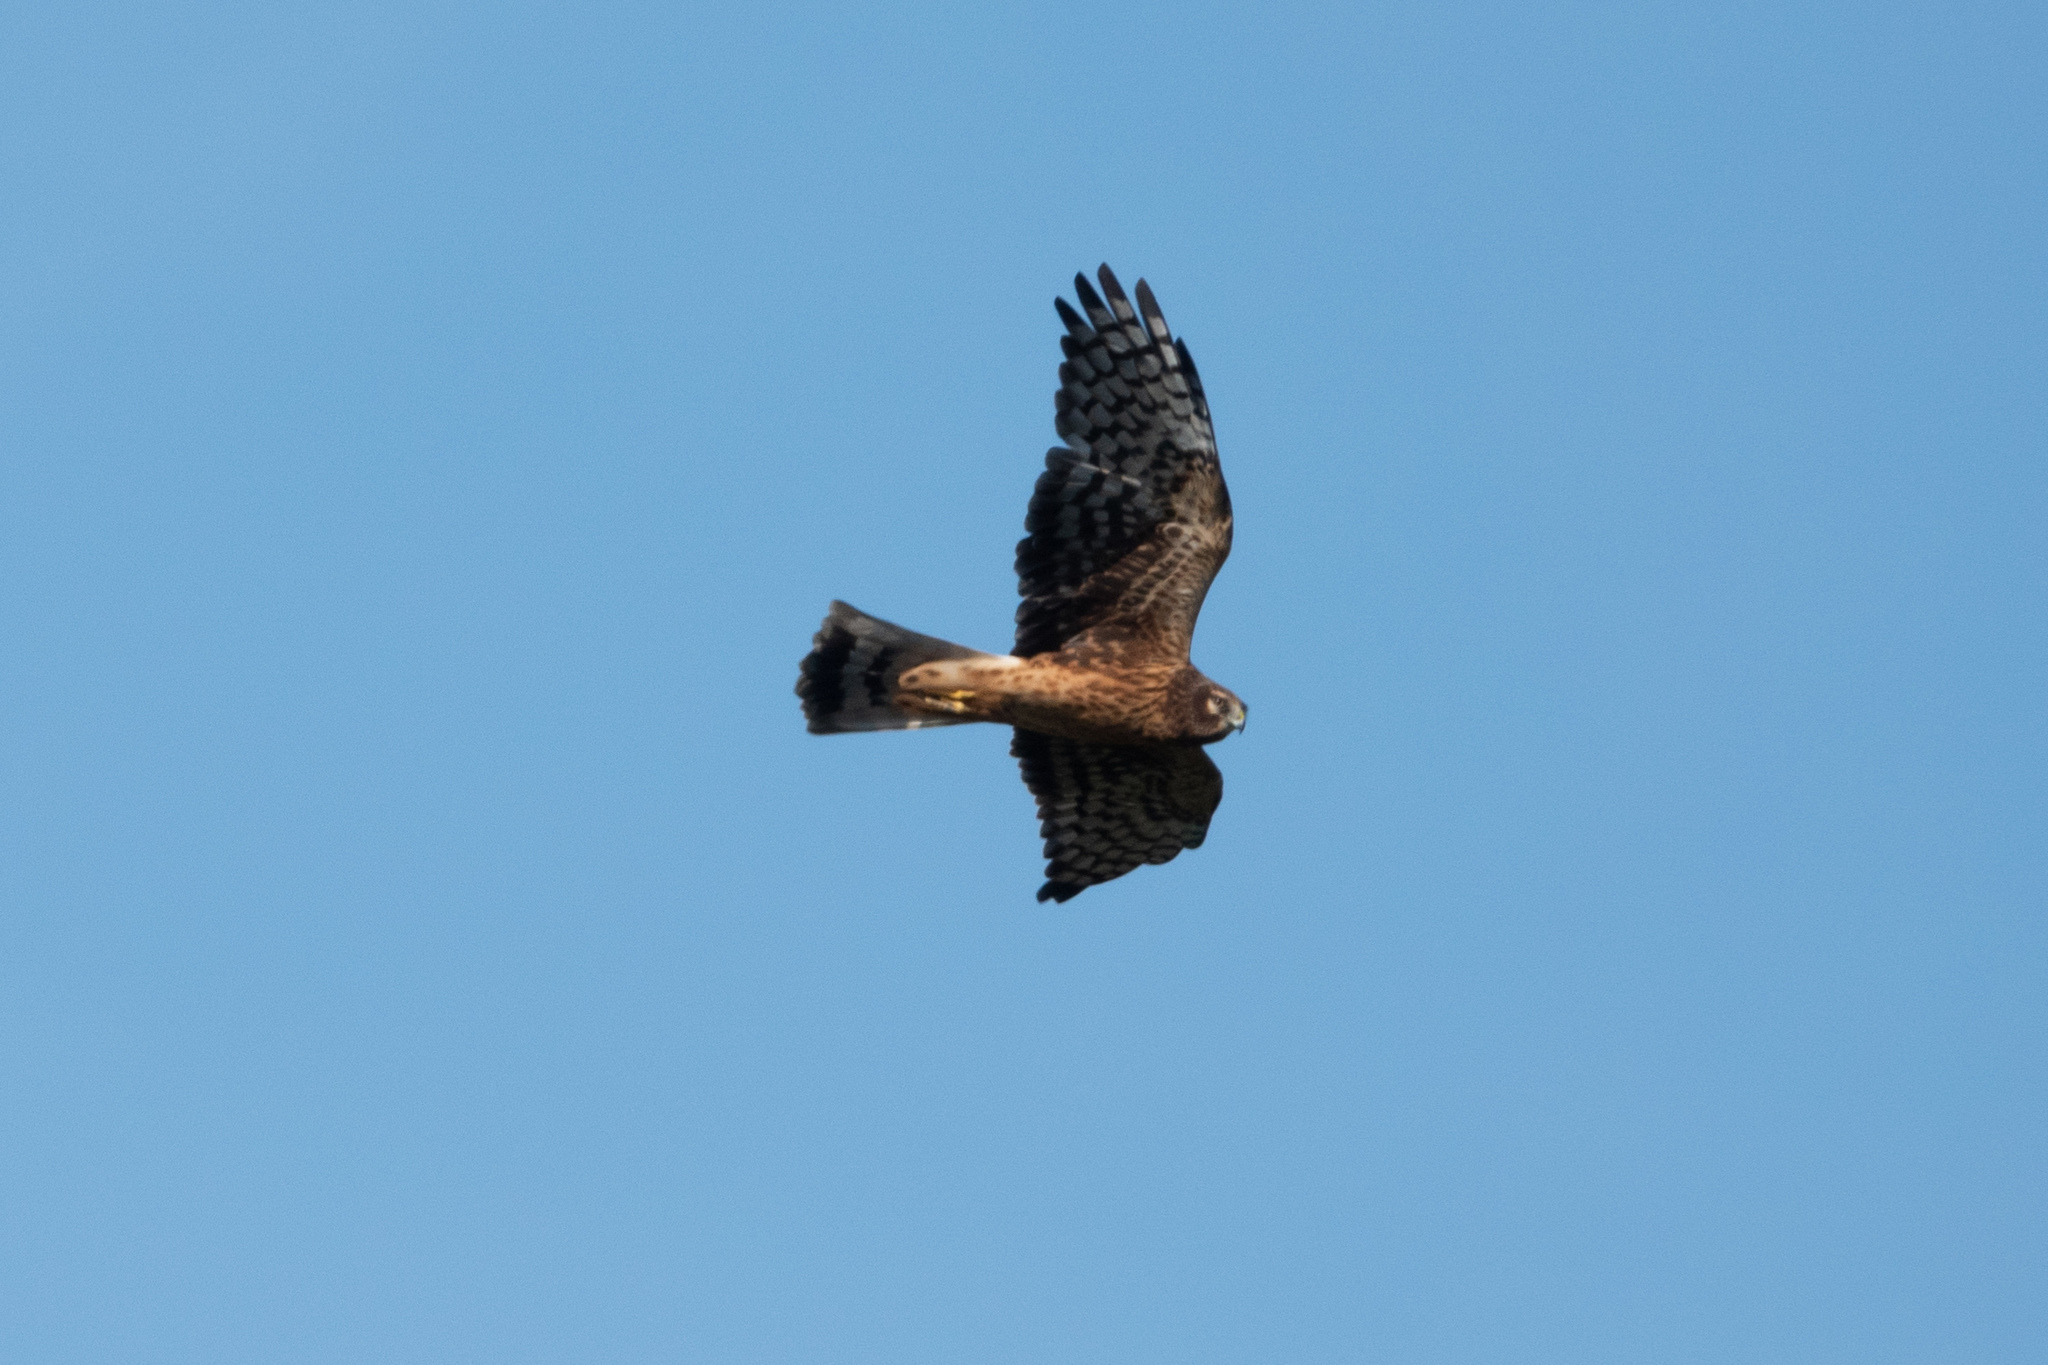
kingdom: Animalia
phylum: Chordata
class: Aves
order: Accipitriformes
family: Accipitridae
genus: Circus
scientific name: Circus cyaneus
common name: Hen harrier
